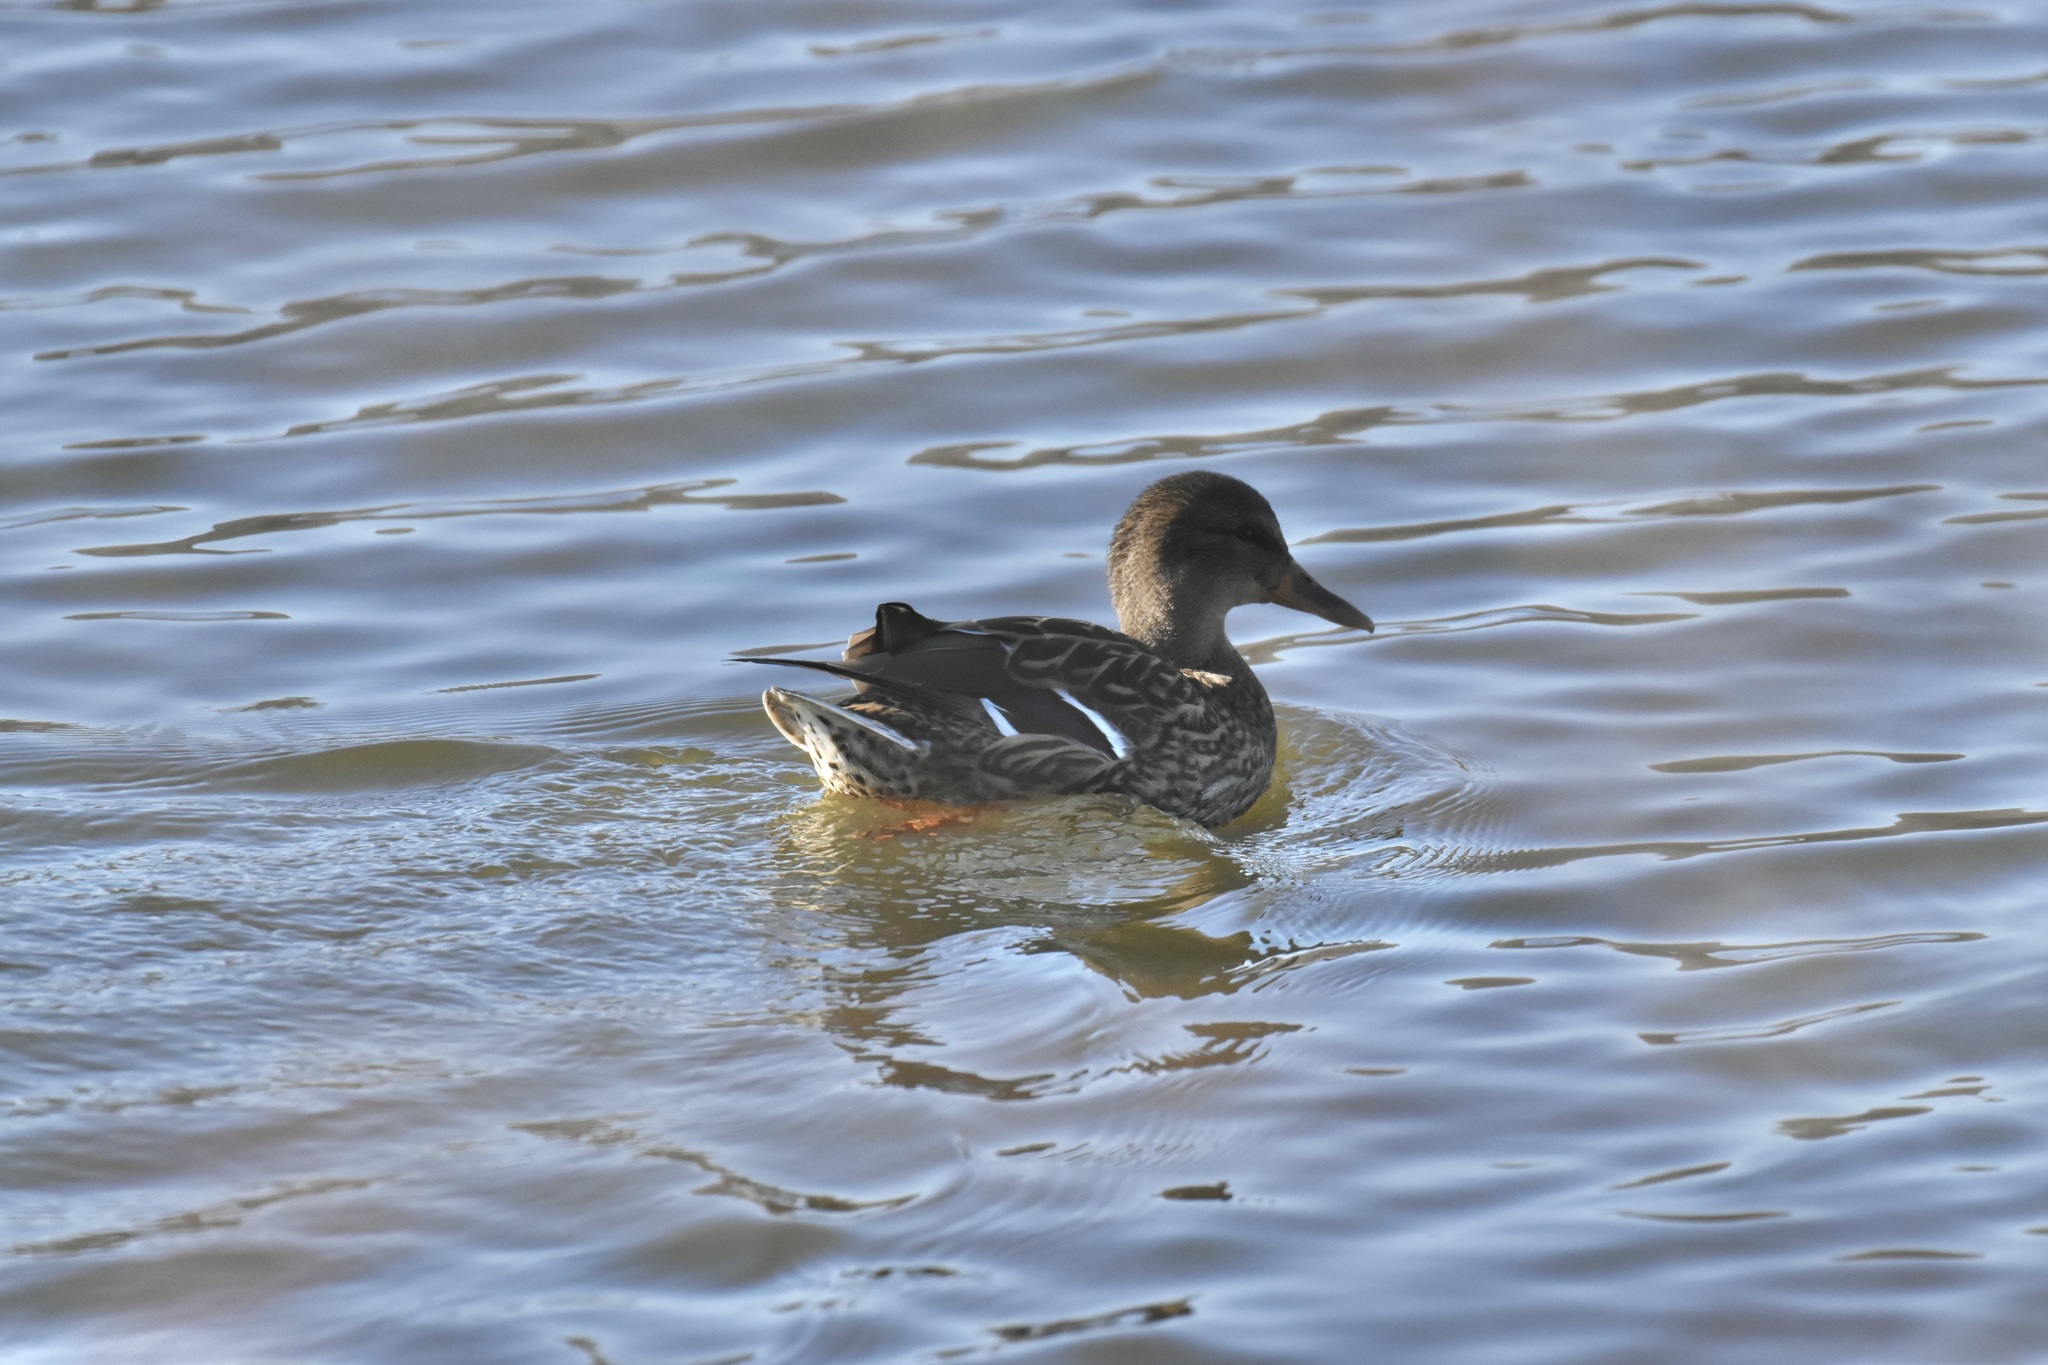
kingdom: Animalia
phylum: Chordata
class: Aves
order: Anseriformes
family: Anatidae
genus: Anas
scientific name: Anas platyrhynchos
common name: Mallard
